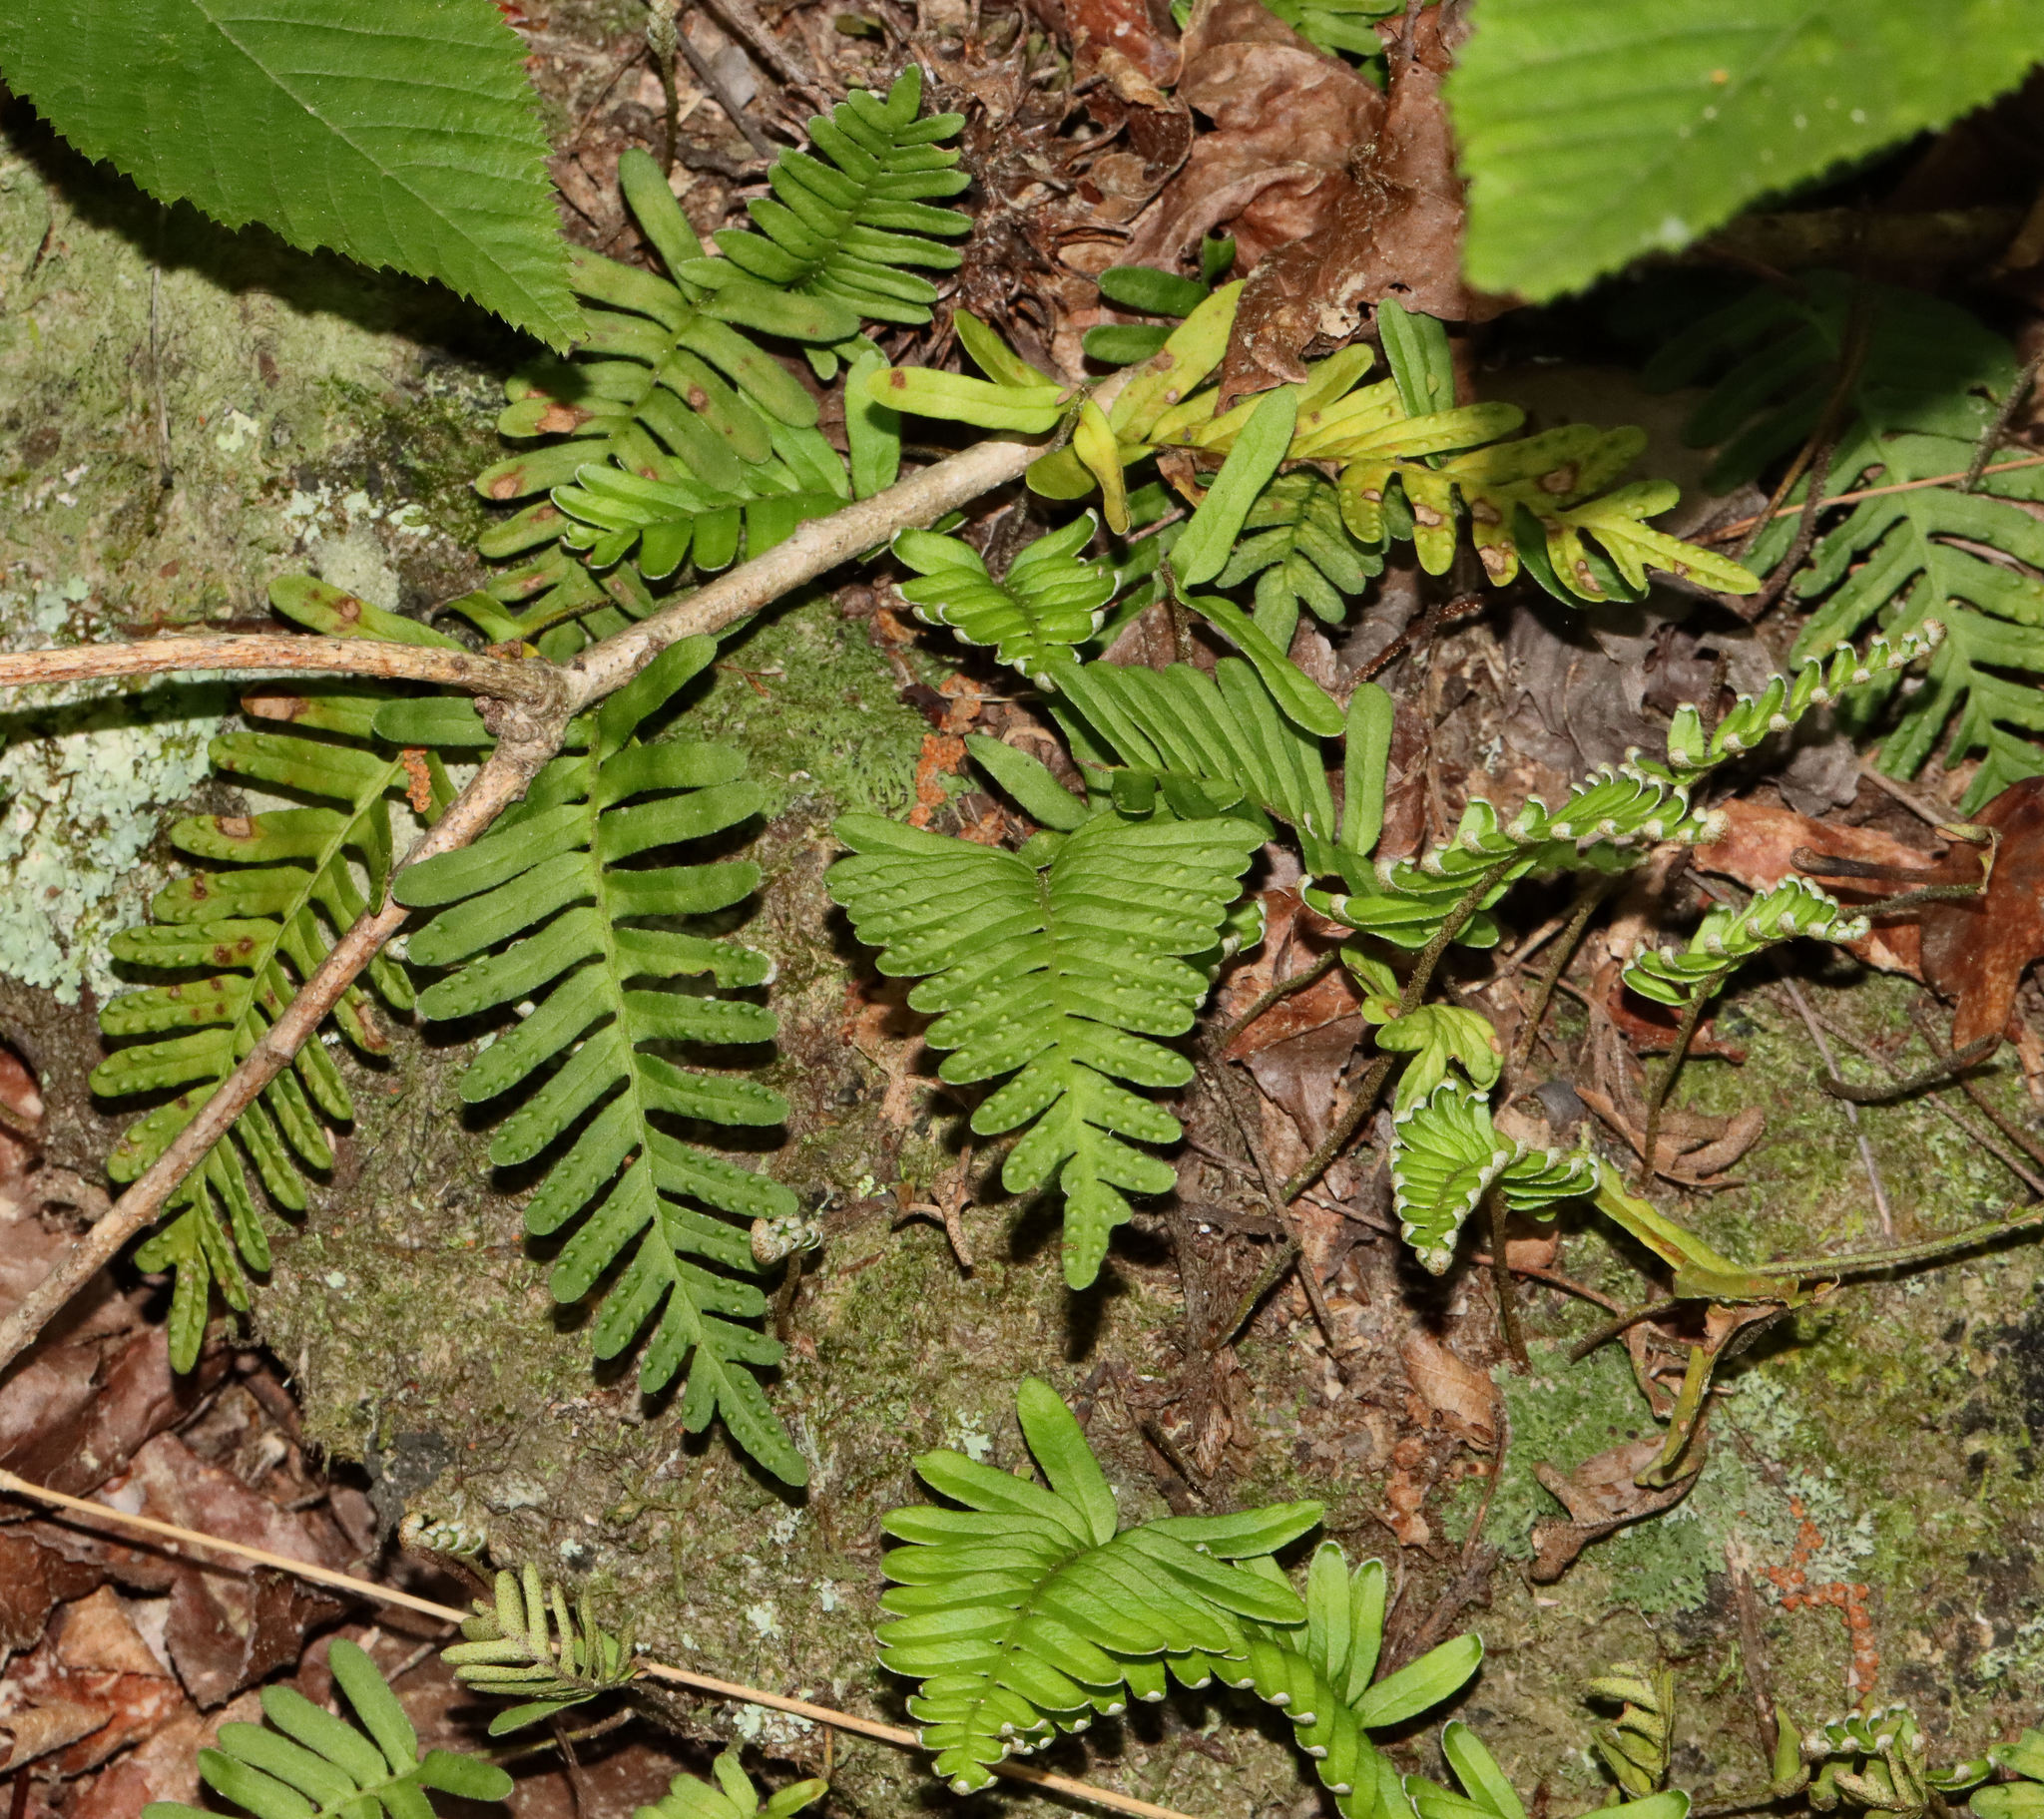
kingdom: Plantae
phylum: Tracheophyta
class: Polypodiopsida
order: Polypodiales
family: Polypodiaceae
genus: Pleopeltis
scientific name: Pleopeltis michauxiana
